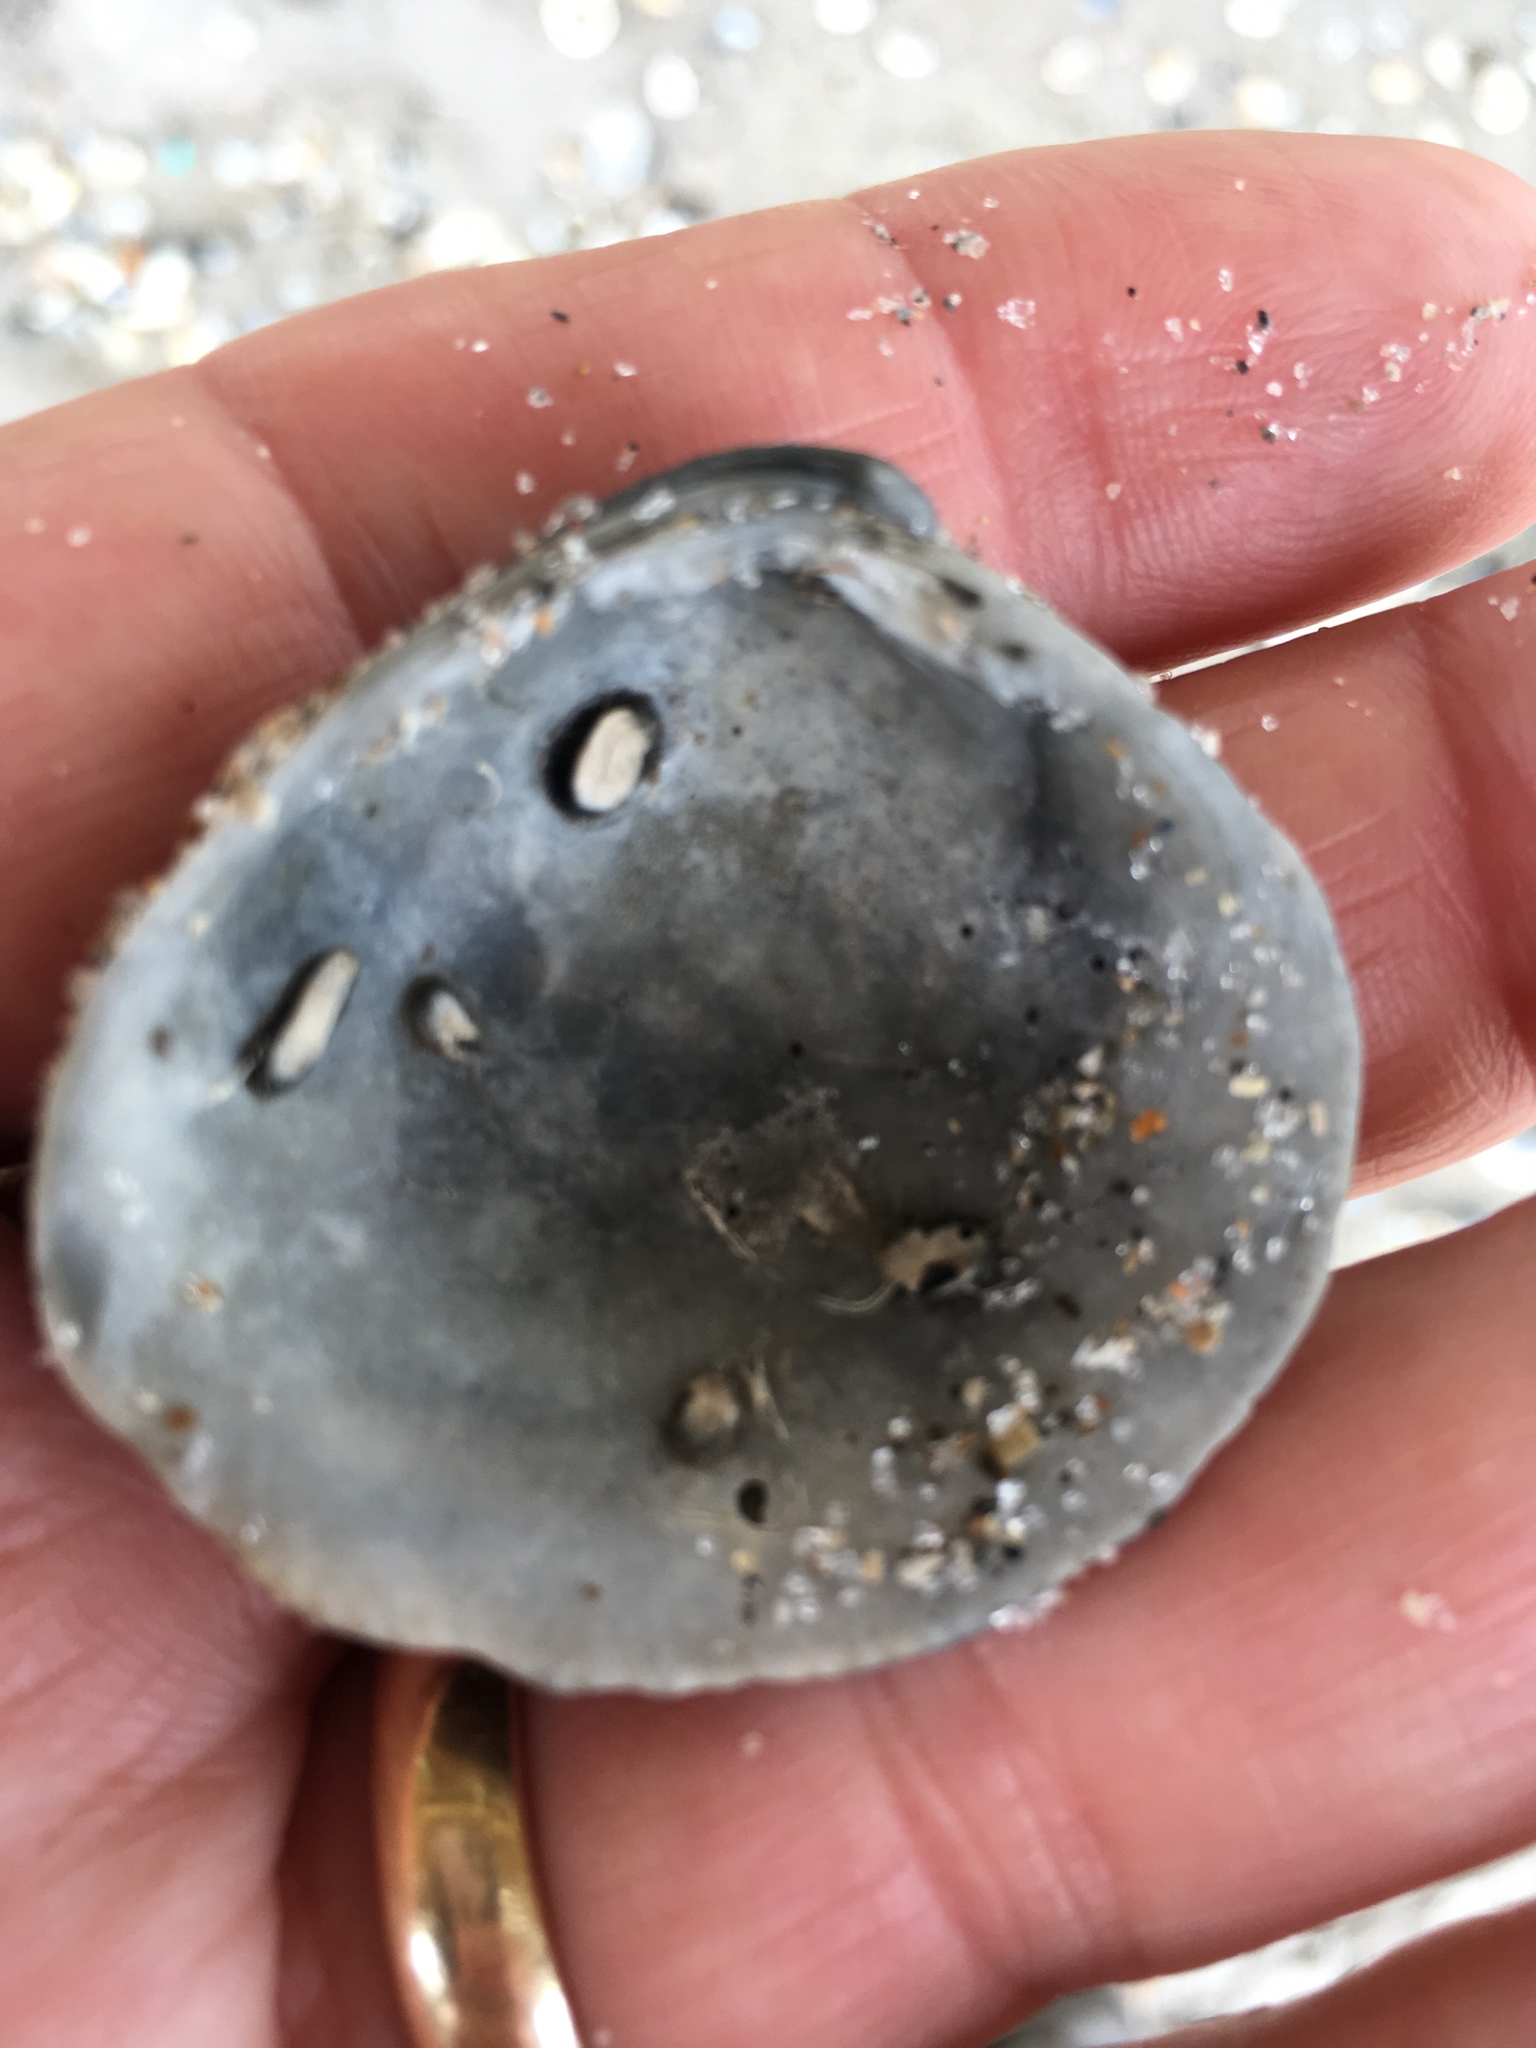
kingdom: Animalia
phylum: Mollusca
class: Bivalvia
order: Venerida
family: Veneridae
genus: Chionopsis
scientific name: Chionopsis intapurpurea
